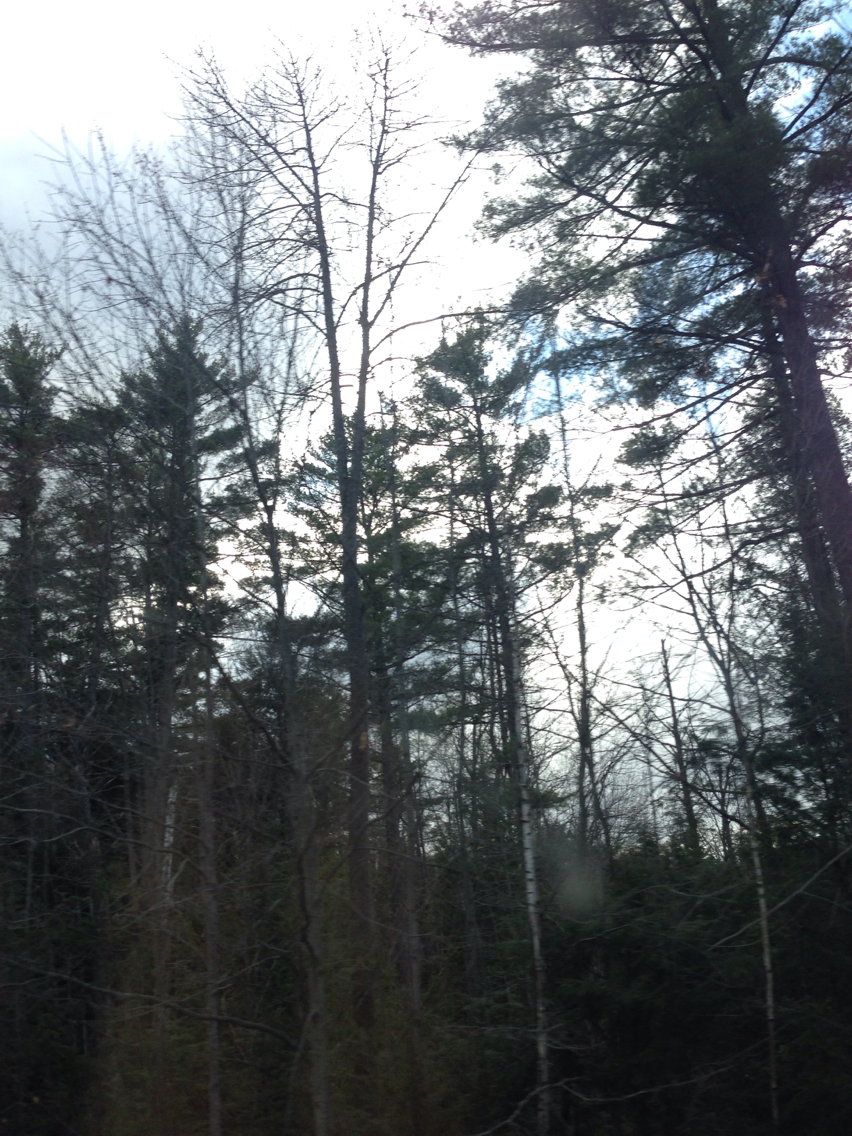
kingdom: Plantae
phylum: Tracheophyta
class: Pinopsida
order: Pinales
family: Pinaceae
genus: Pinus
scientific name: Pinus strobus
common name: Weymouth pine
